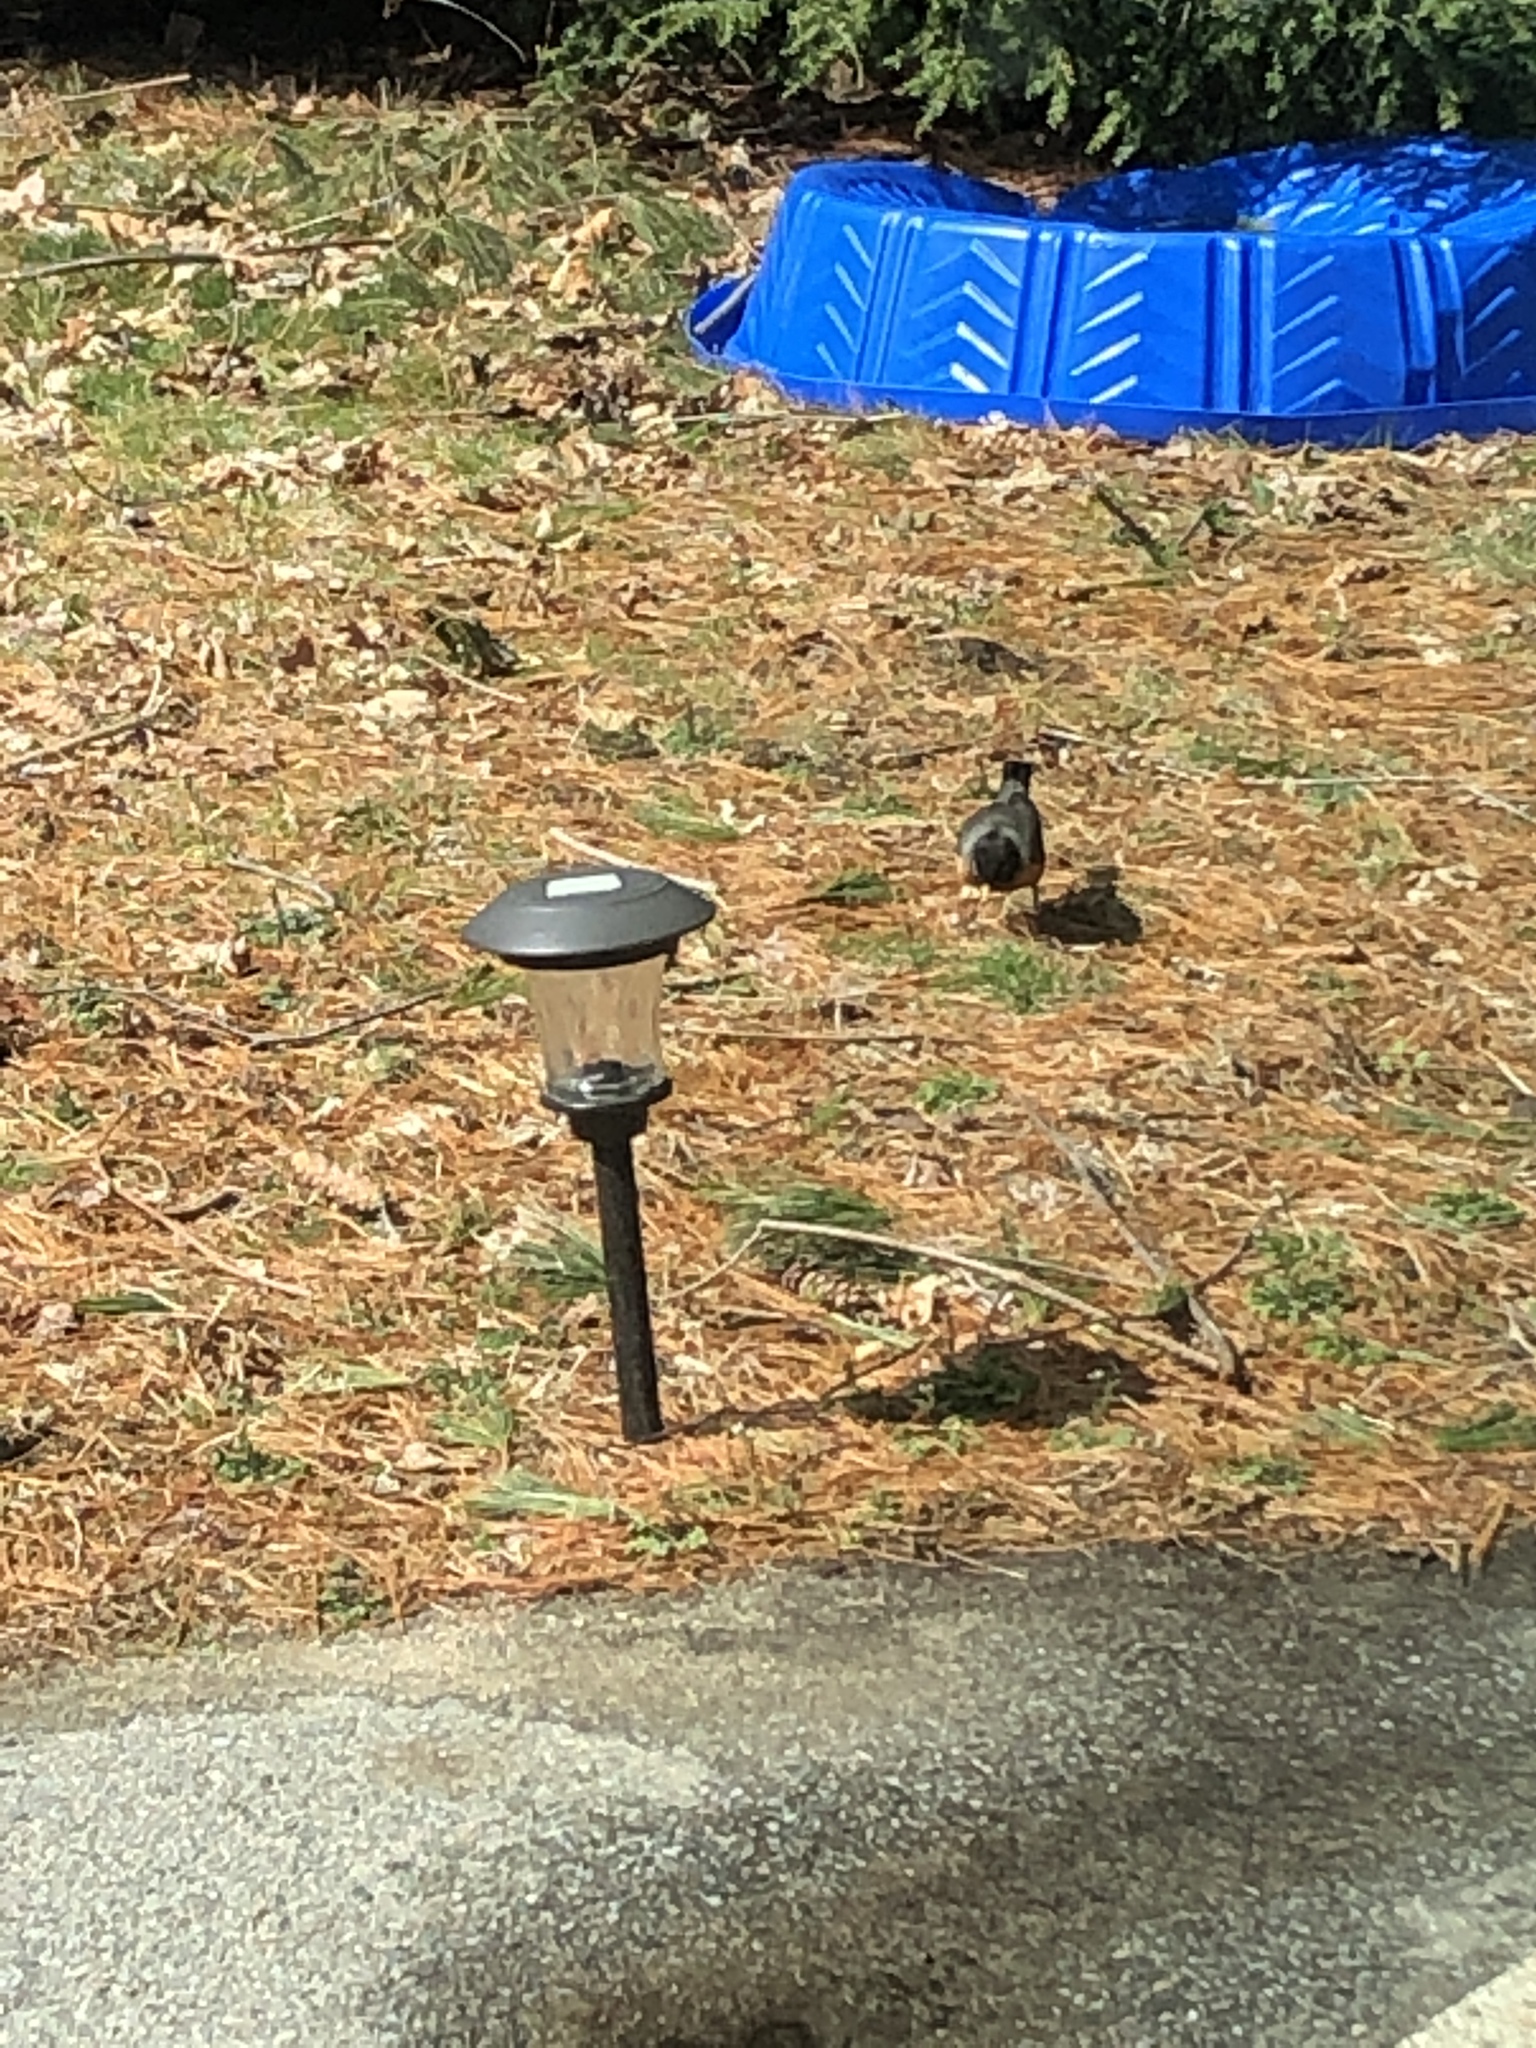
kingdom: Animalia
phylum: Chordata
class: Aves
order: Passeriformes
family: Turdidae
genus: Turdus
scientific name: Turdus migratorius
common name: American robin
